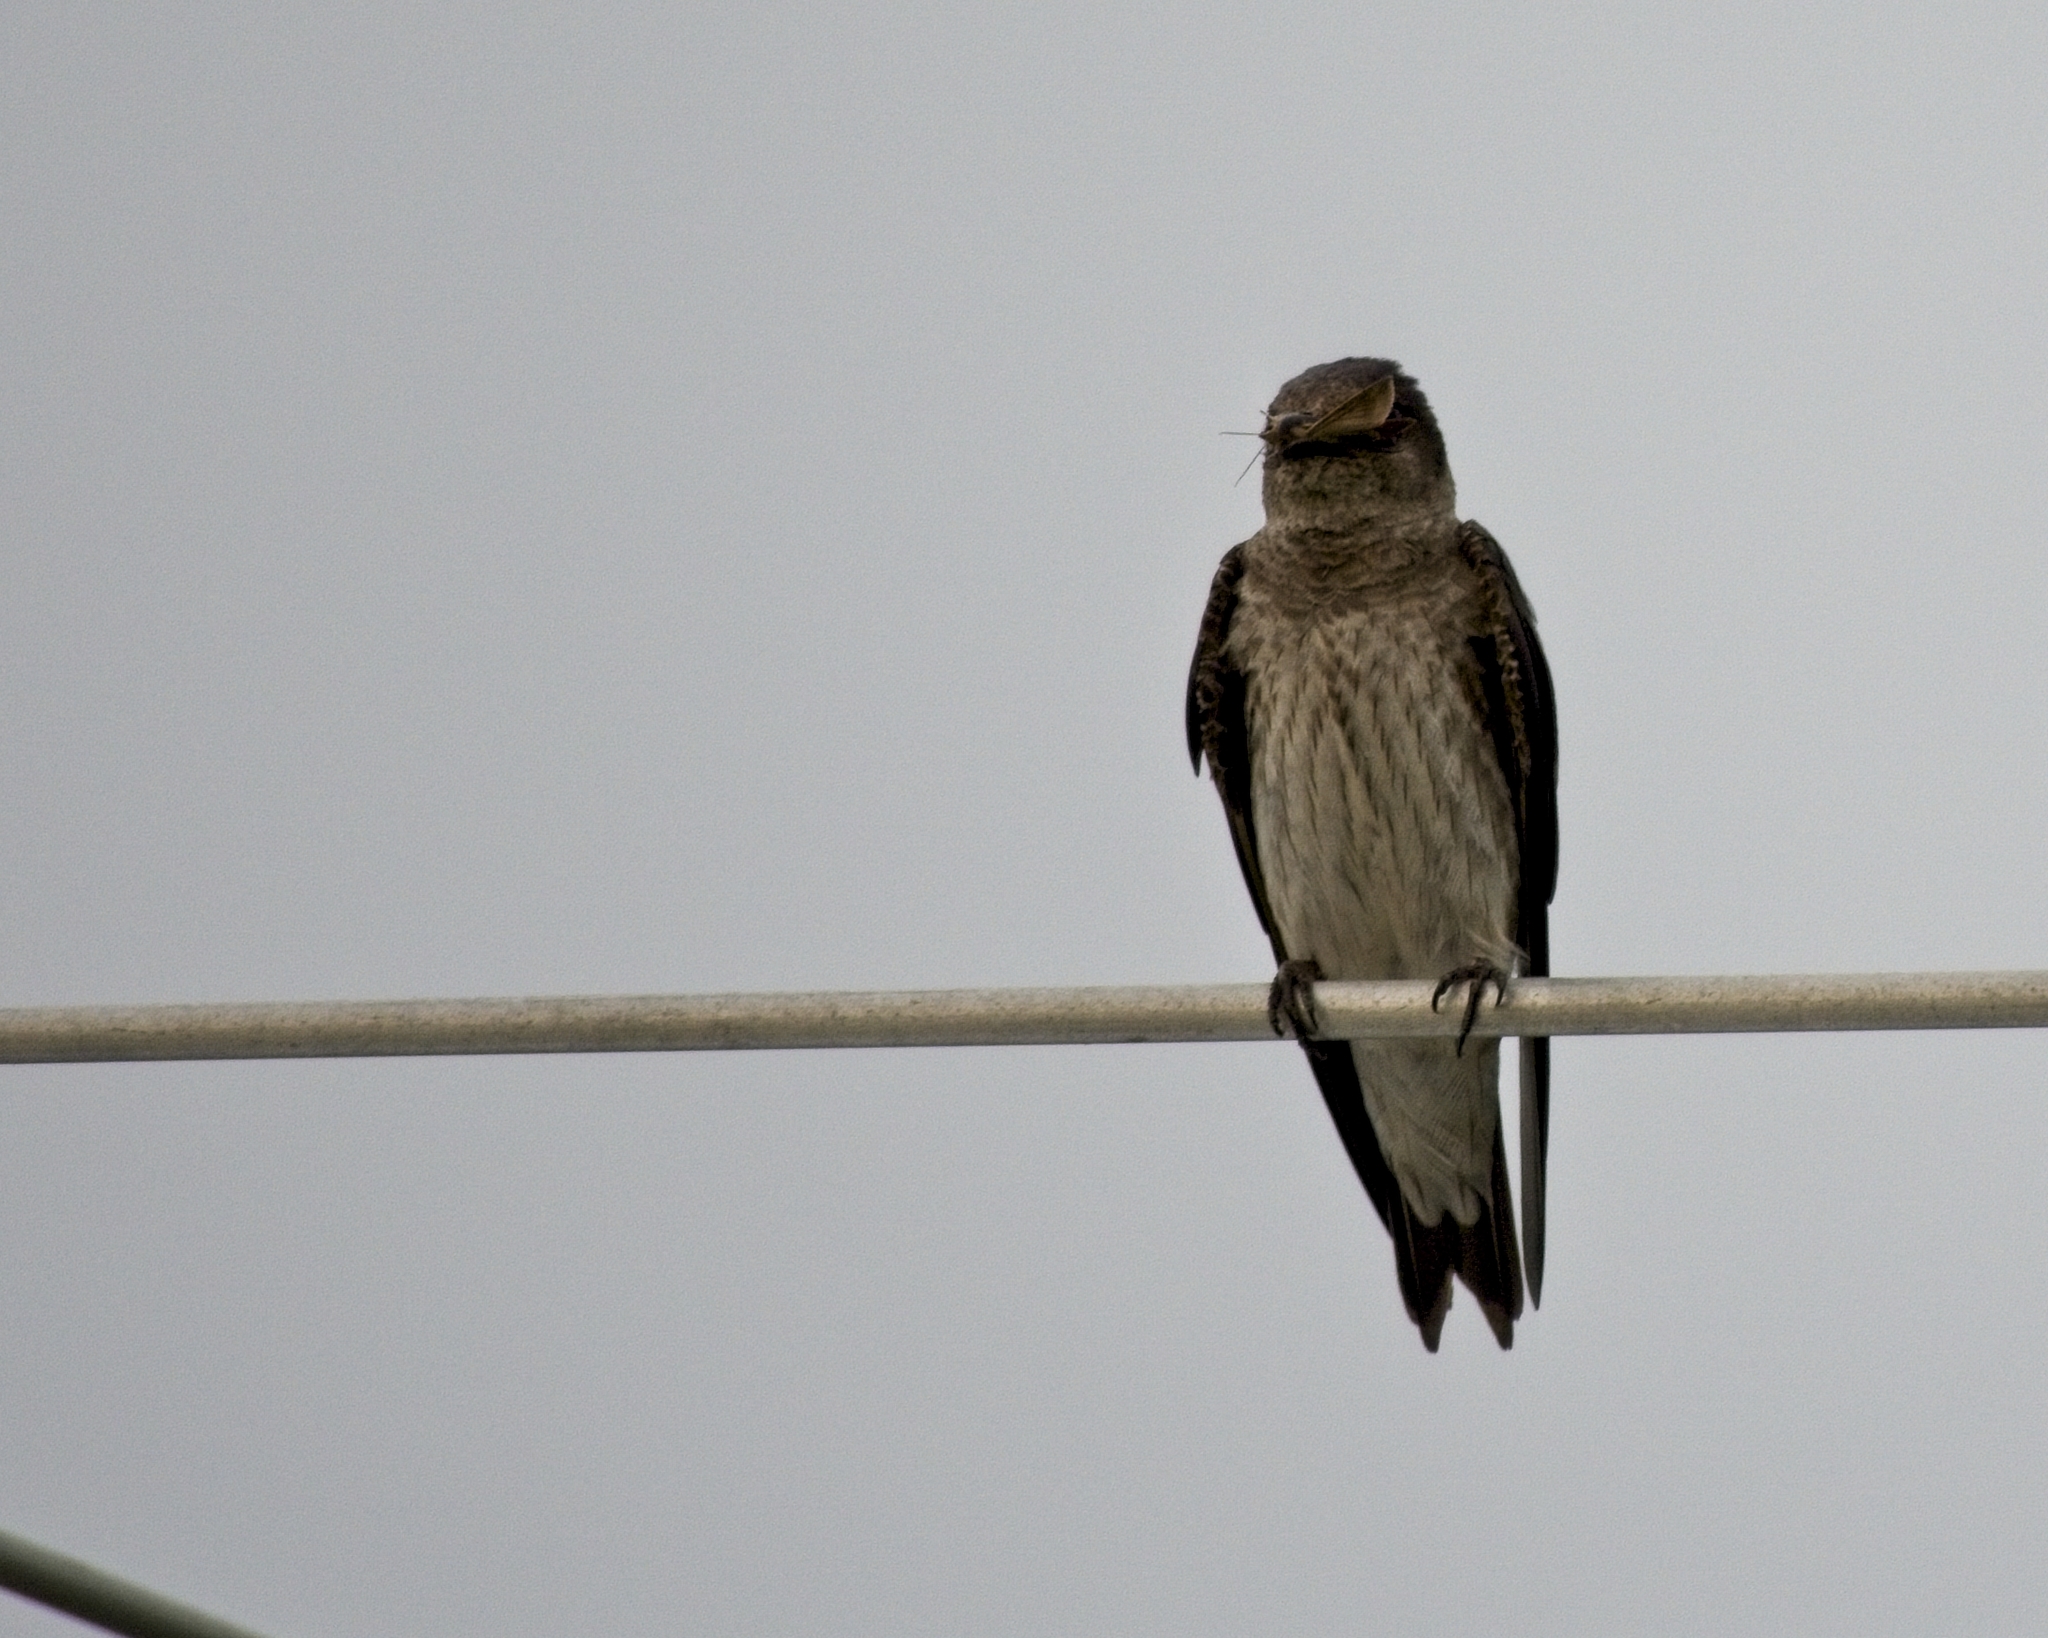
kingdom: Animalia
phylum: Chordata
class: Aves
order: Passeriformes
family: Hirundinidae
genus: Progne
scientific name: Progne subis
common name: Purple martin
